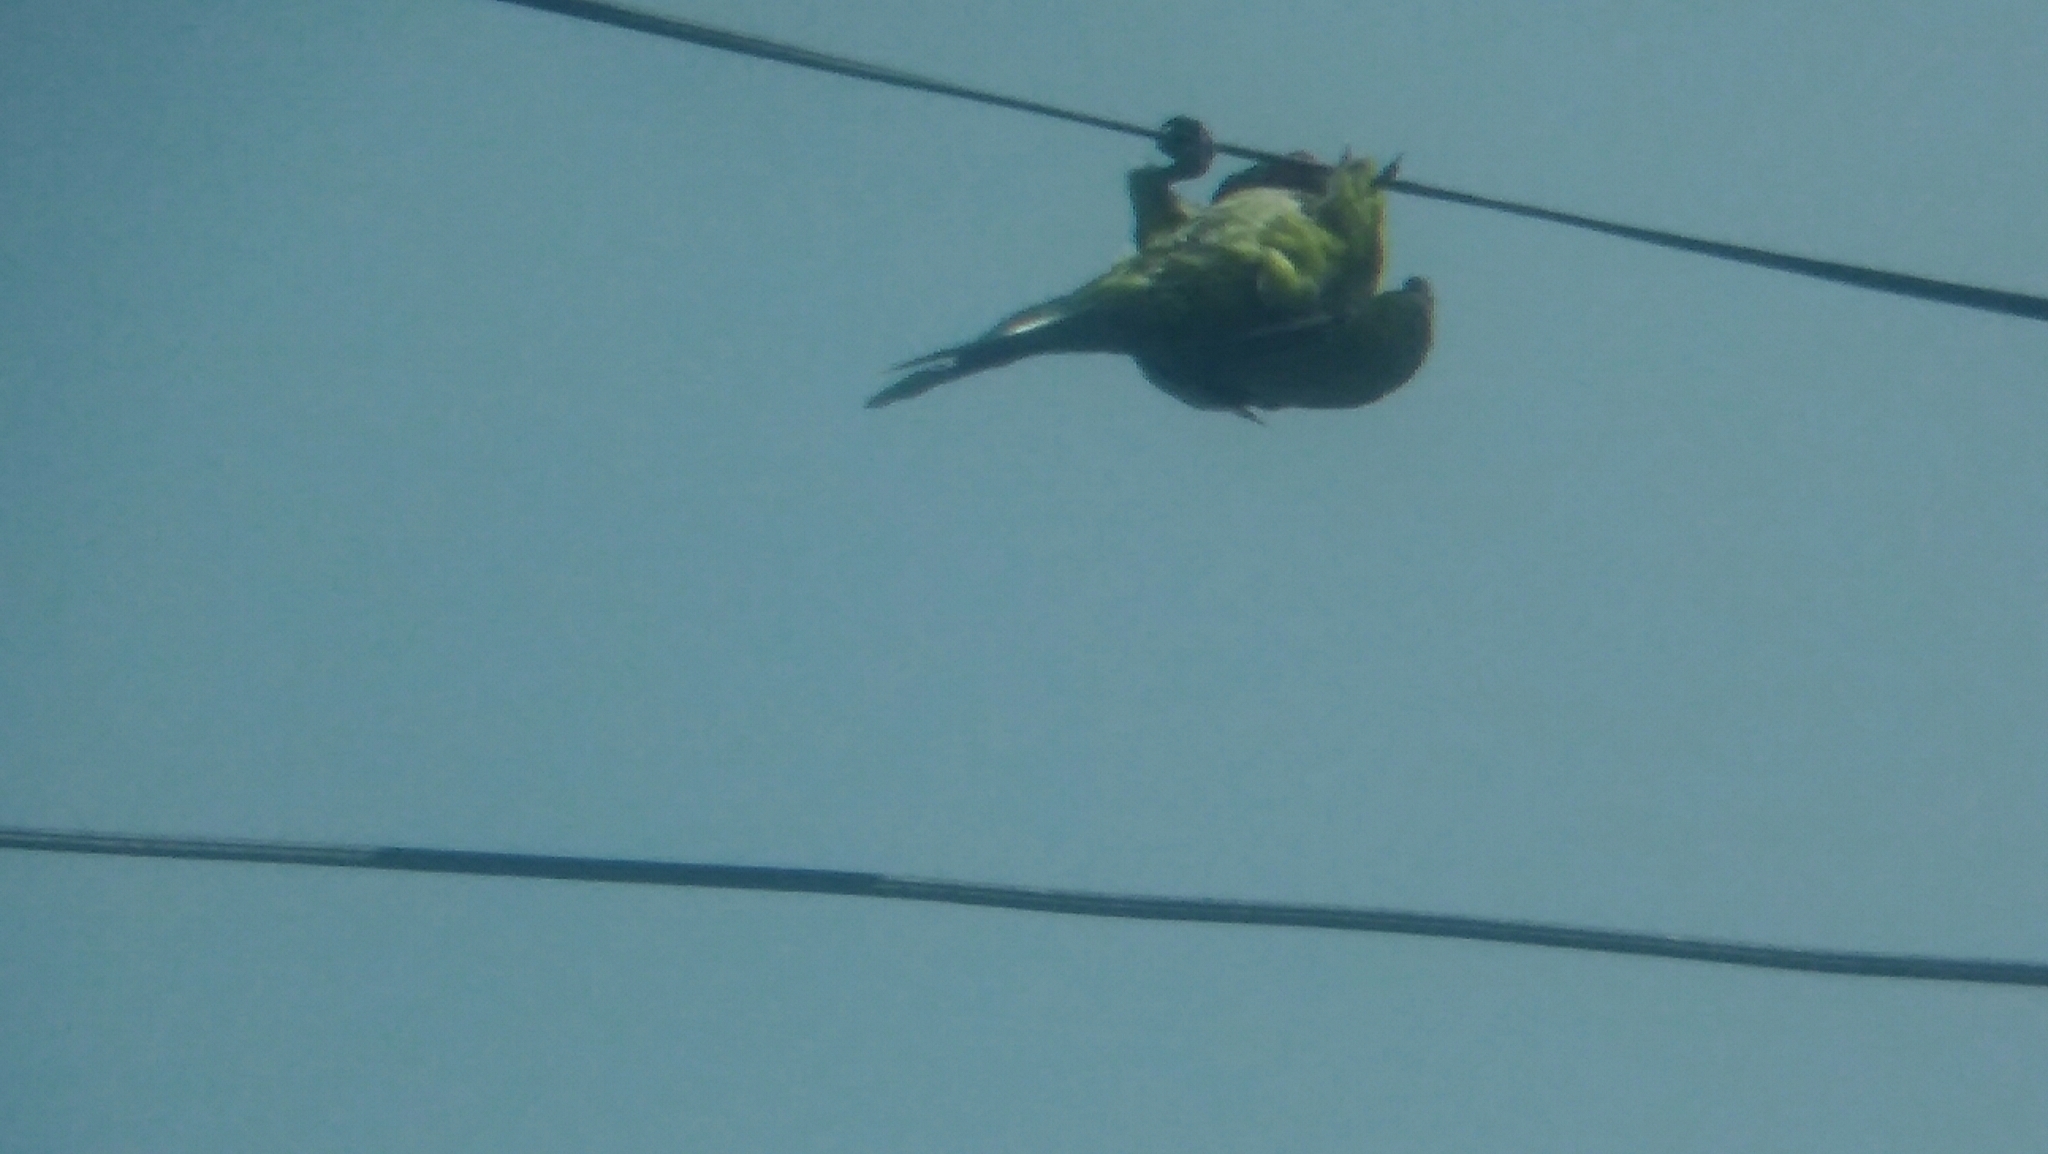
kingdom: Animalia
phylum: Chordata
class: Aves
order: Psittaciformes
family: Psittacidae
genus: Myiopsitta
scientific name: Myiopsitta monachus
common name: Monk parakeet
